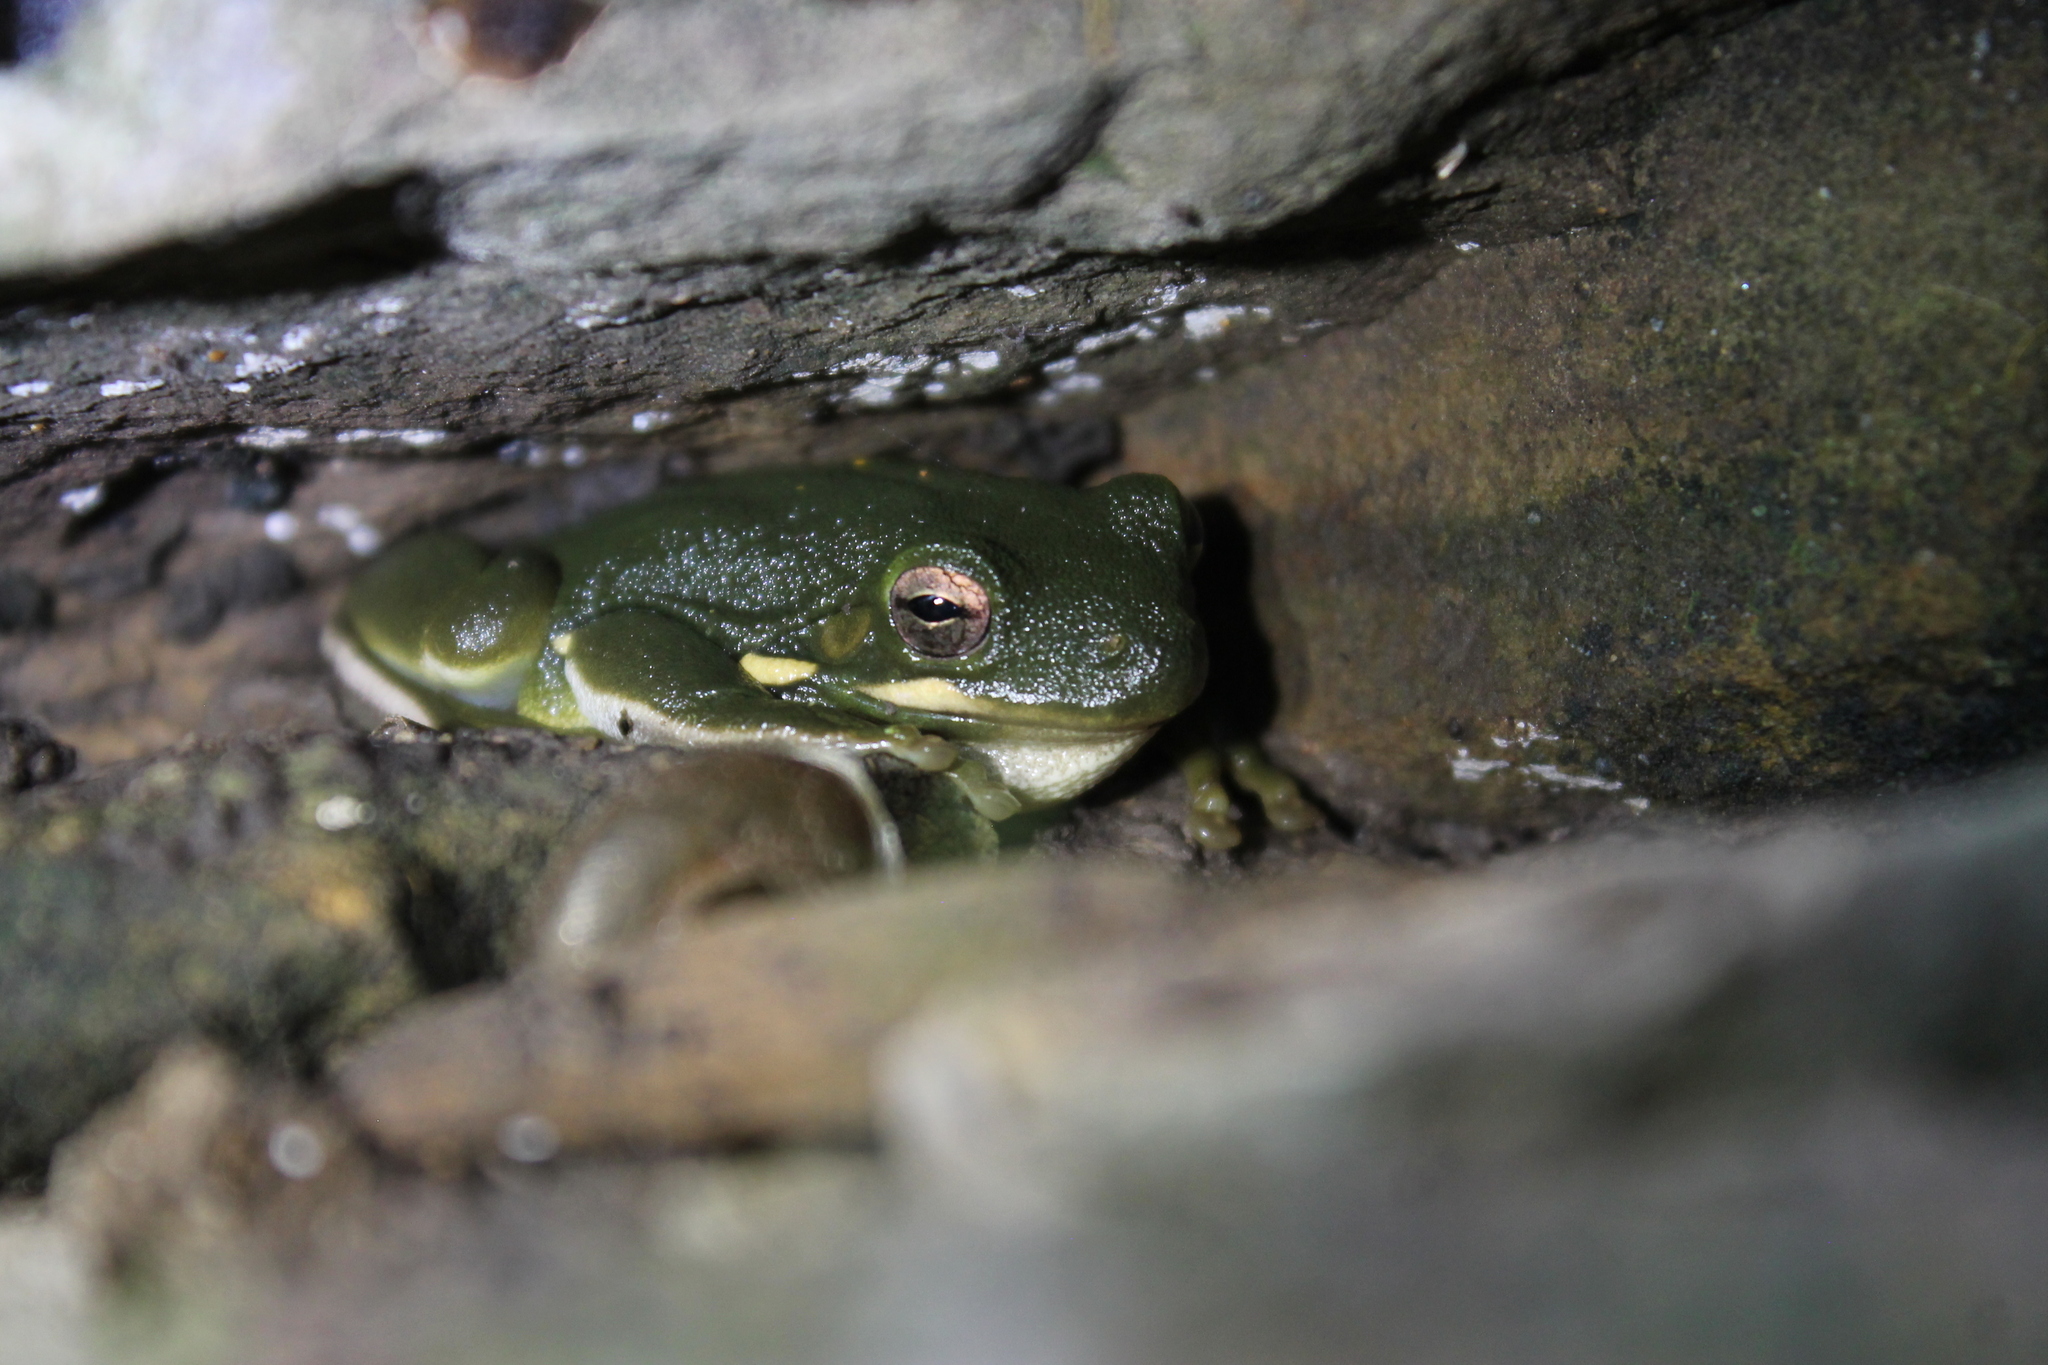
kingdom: Animalia
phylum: Chordata
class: Amphibia
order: Anura
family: Hylidae
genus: Dryophytes
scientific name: Dryophytes cinereus
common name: Green treefrog
